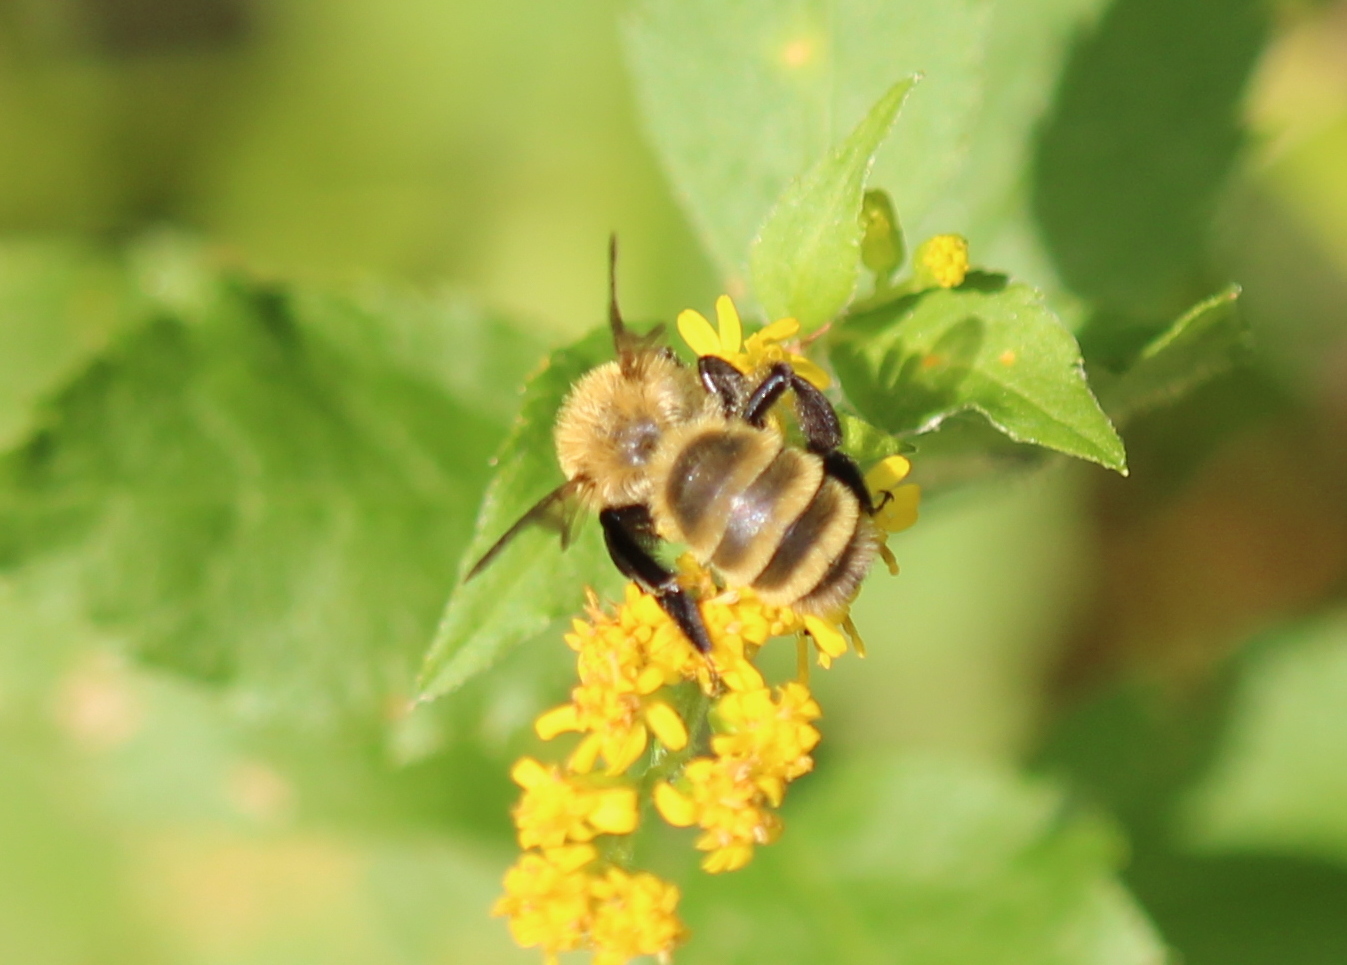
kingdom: Animalia
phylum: Arthropoda
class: Insecta
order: Hymenoptera
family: Andrenidae
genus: Andrena
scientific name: Andrena hirticincta
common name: Hairy-banded mining bee
